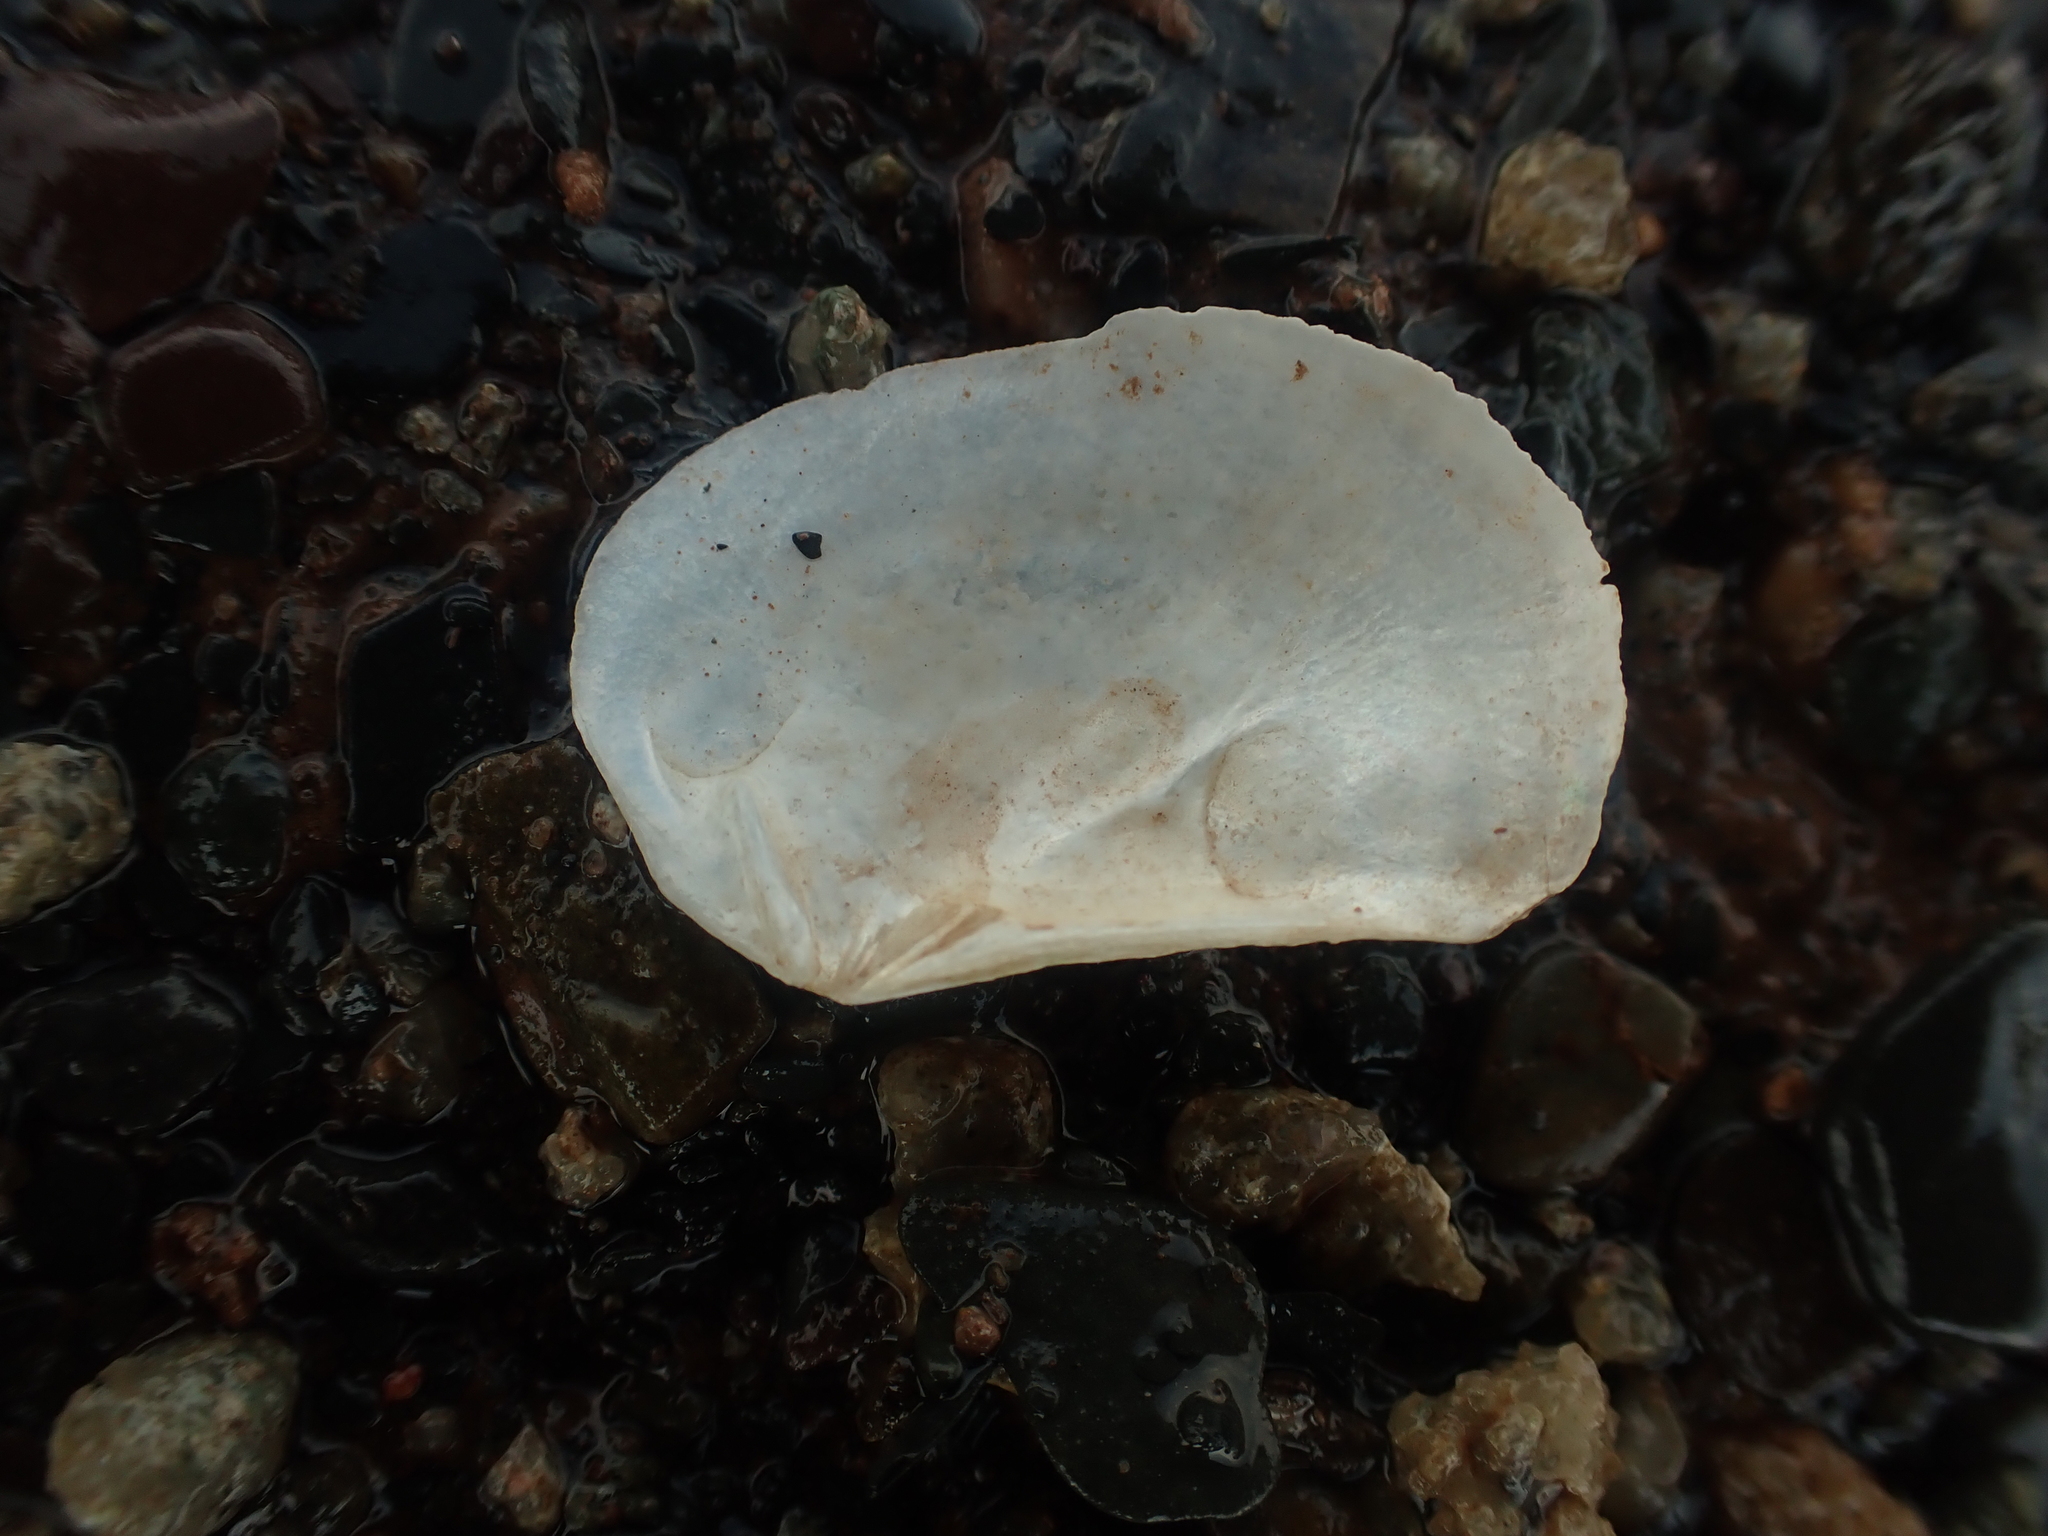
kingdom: Animalia
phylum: Mollusca
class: Bivalvia
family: Pandoridae
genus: Pandora
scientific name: Pandora gouldiana
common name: Rounded pandora
